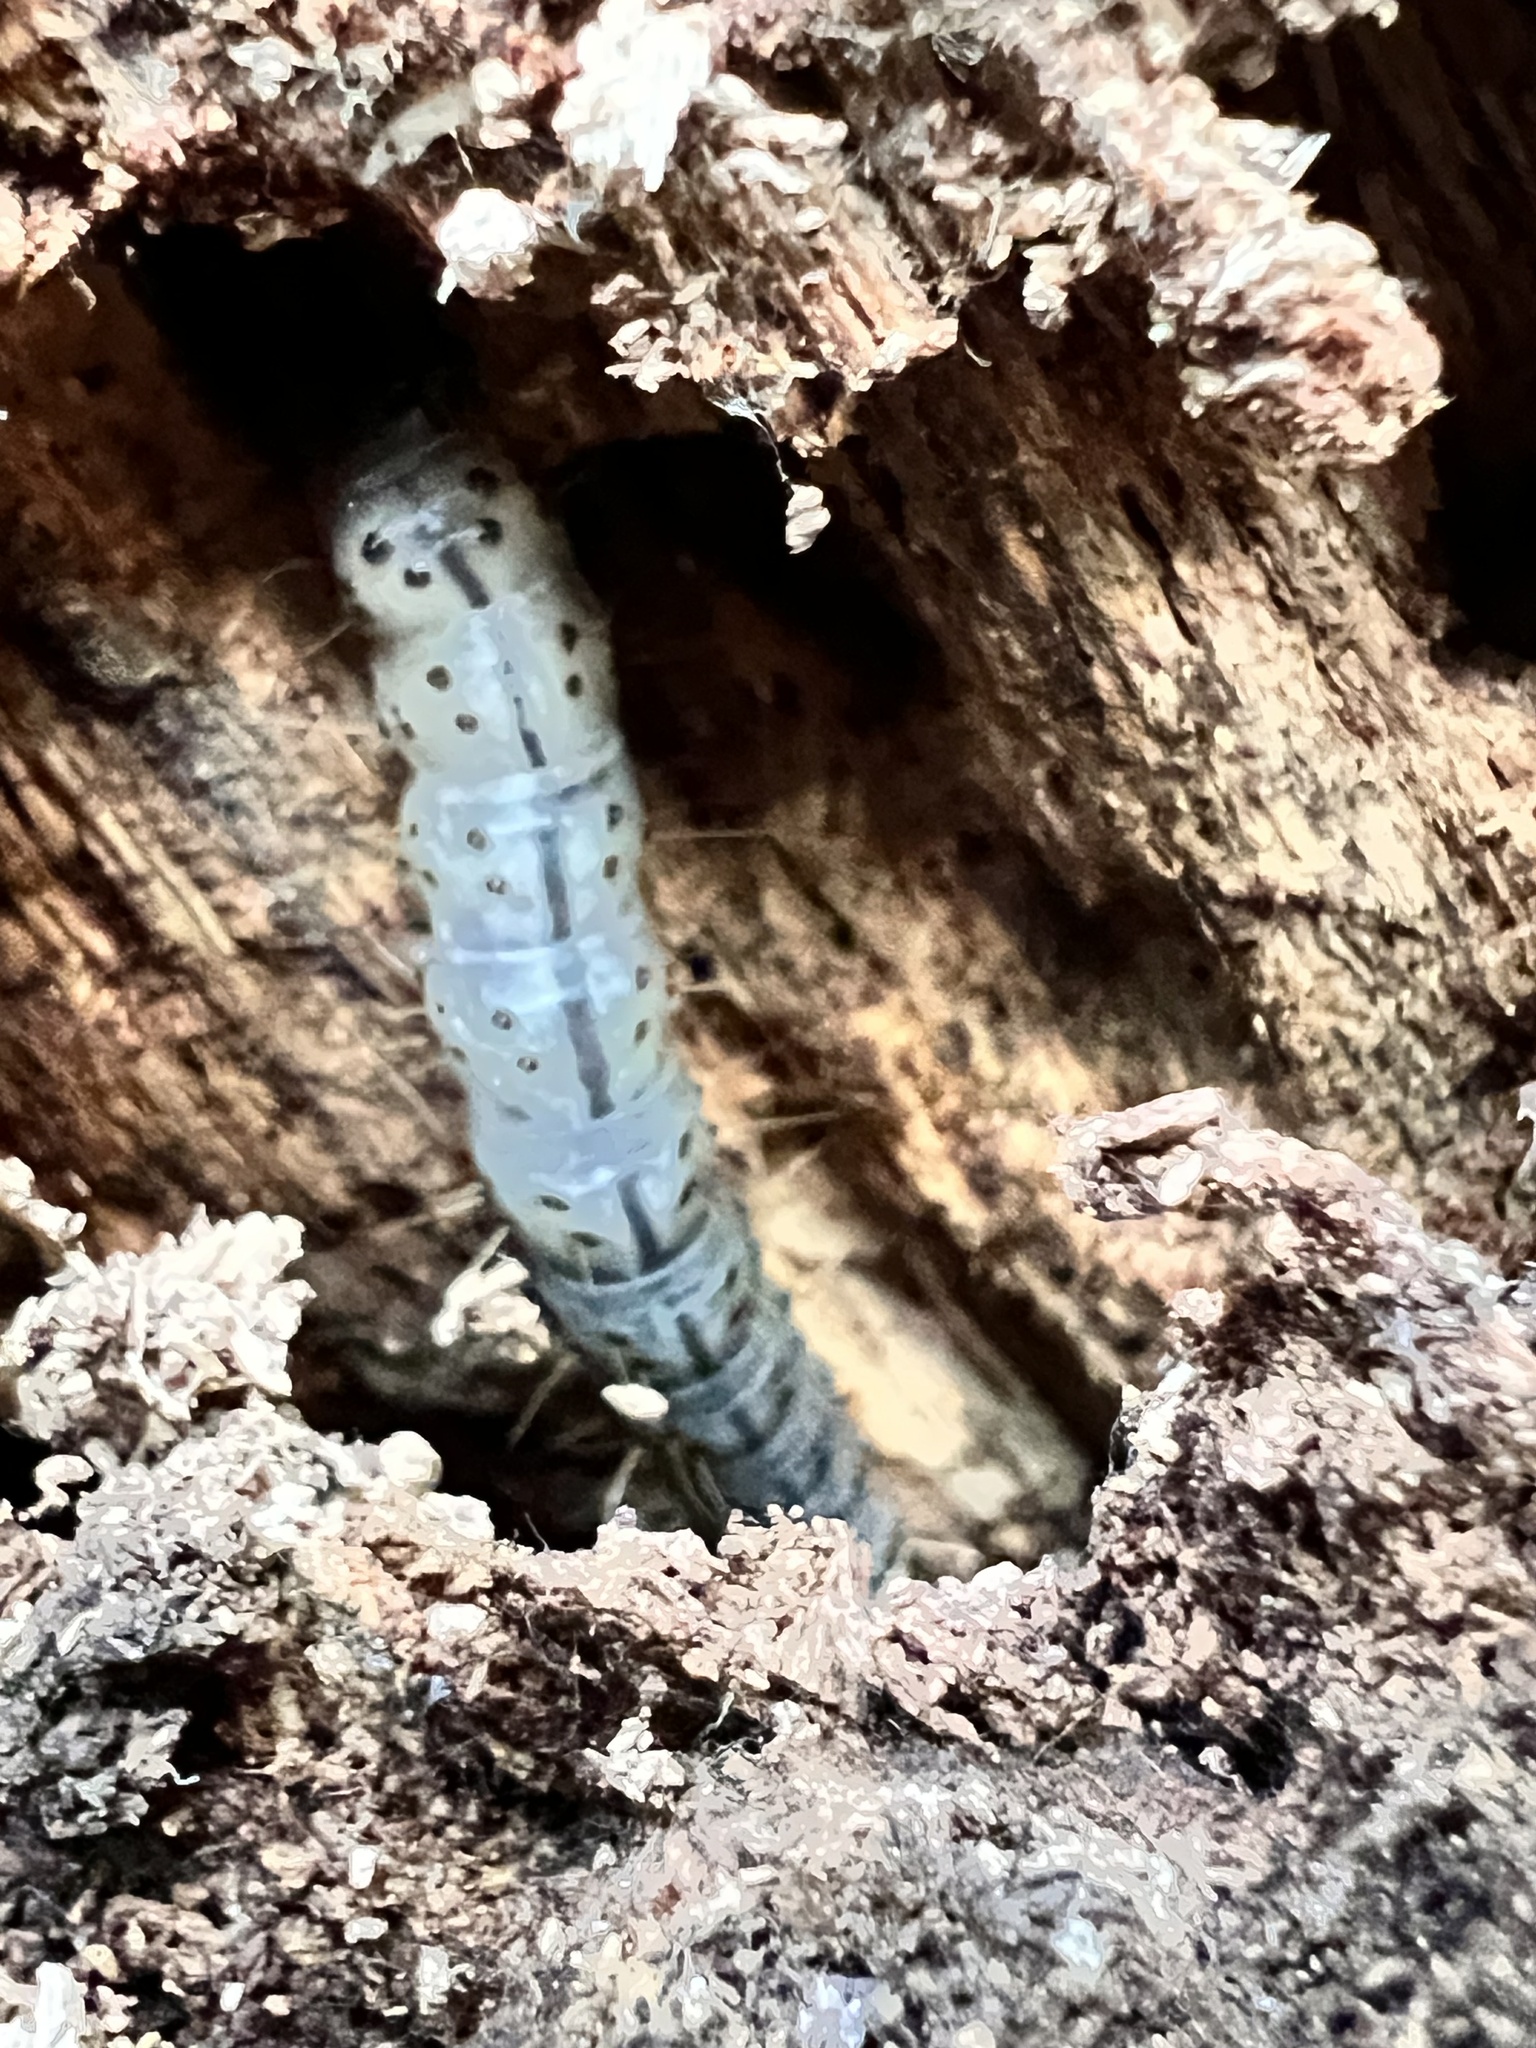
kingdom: Animalia
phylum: Arthropoda
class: Insecta
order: Lepidoptera
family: Erebidae
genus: Scolecocampa
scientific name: Scolecocampa liburna
